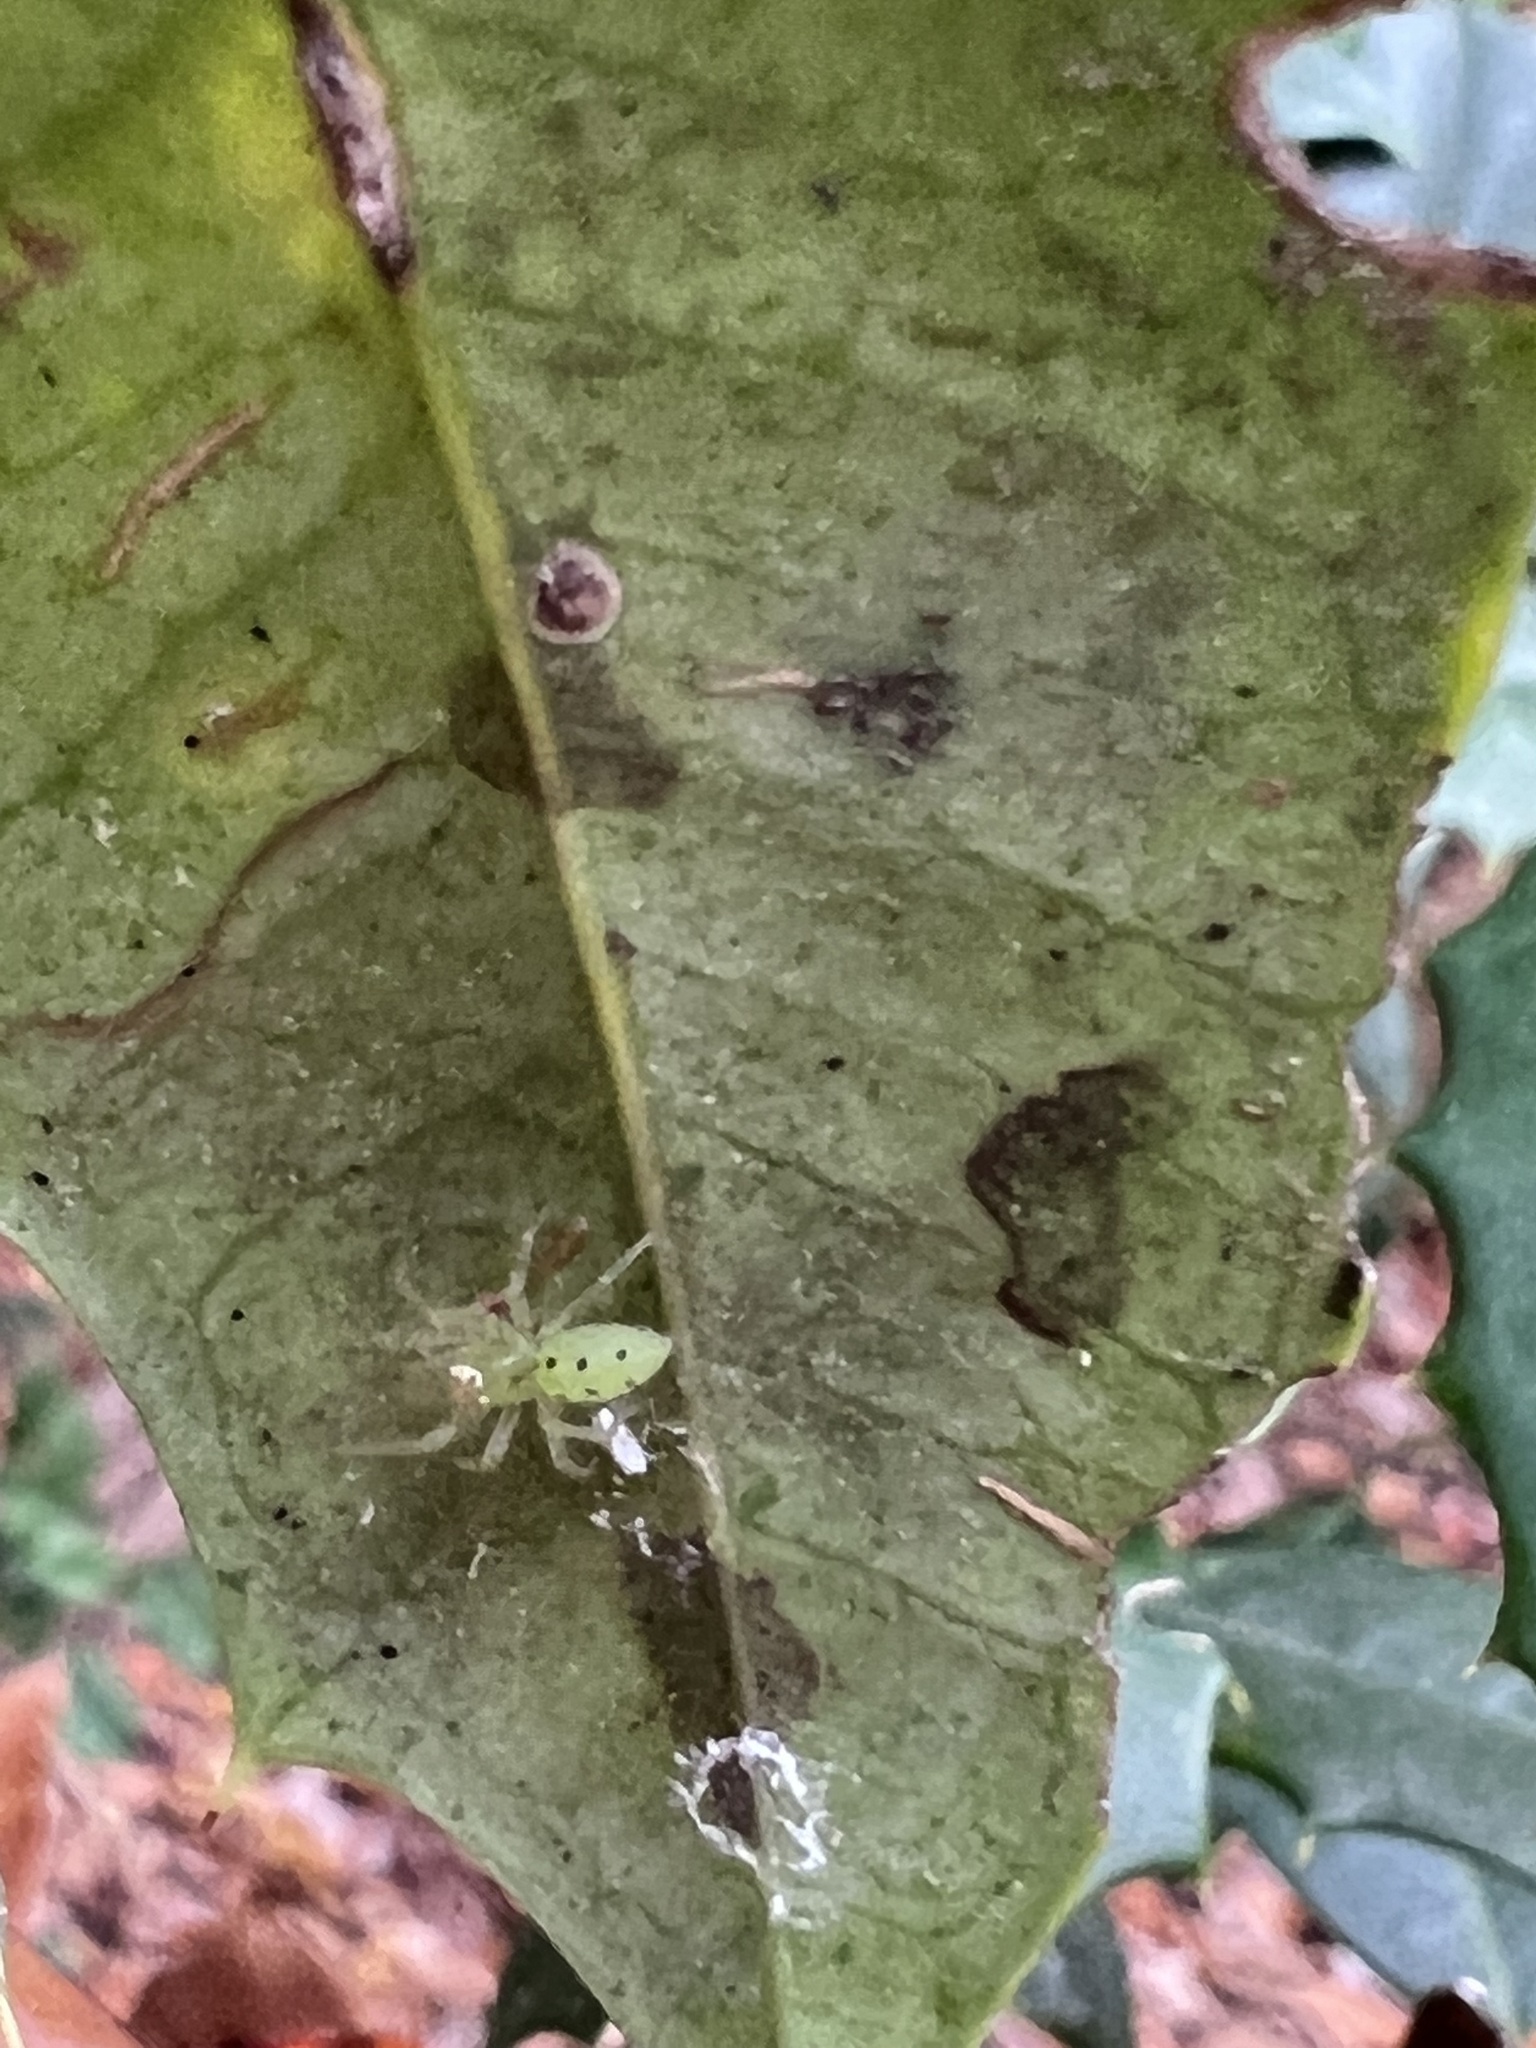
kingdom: Animalia
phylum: Arthropoda
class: Arachnida
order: Araneae
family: Salticidae
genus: Lyssomanes
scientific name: Lyssomanes viridis
